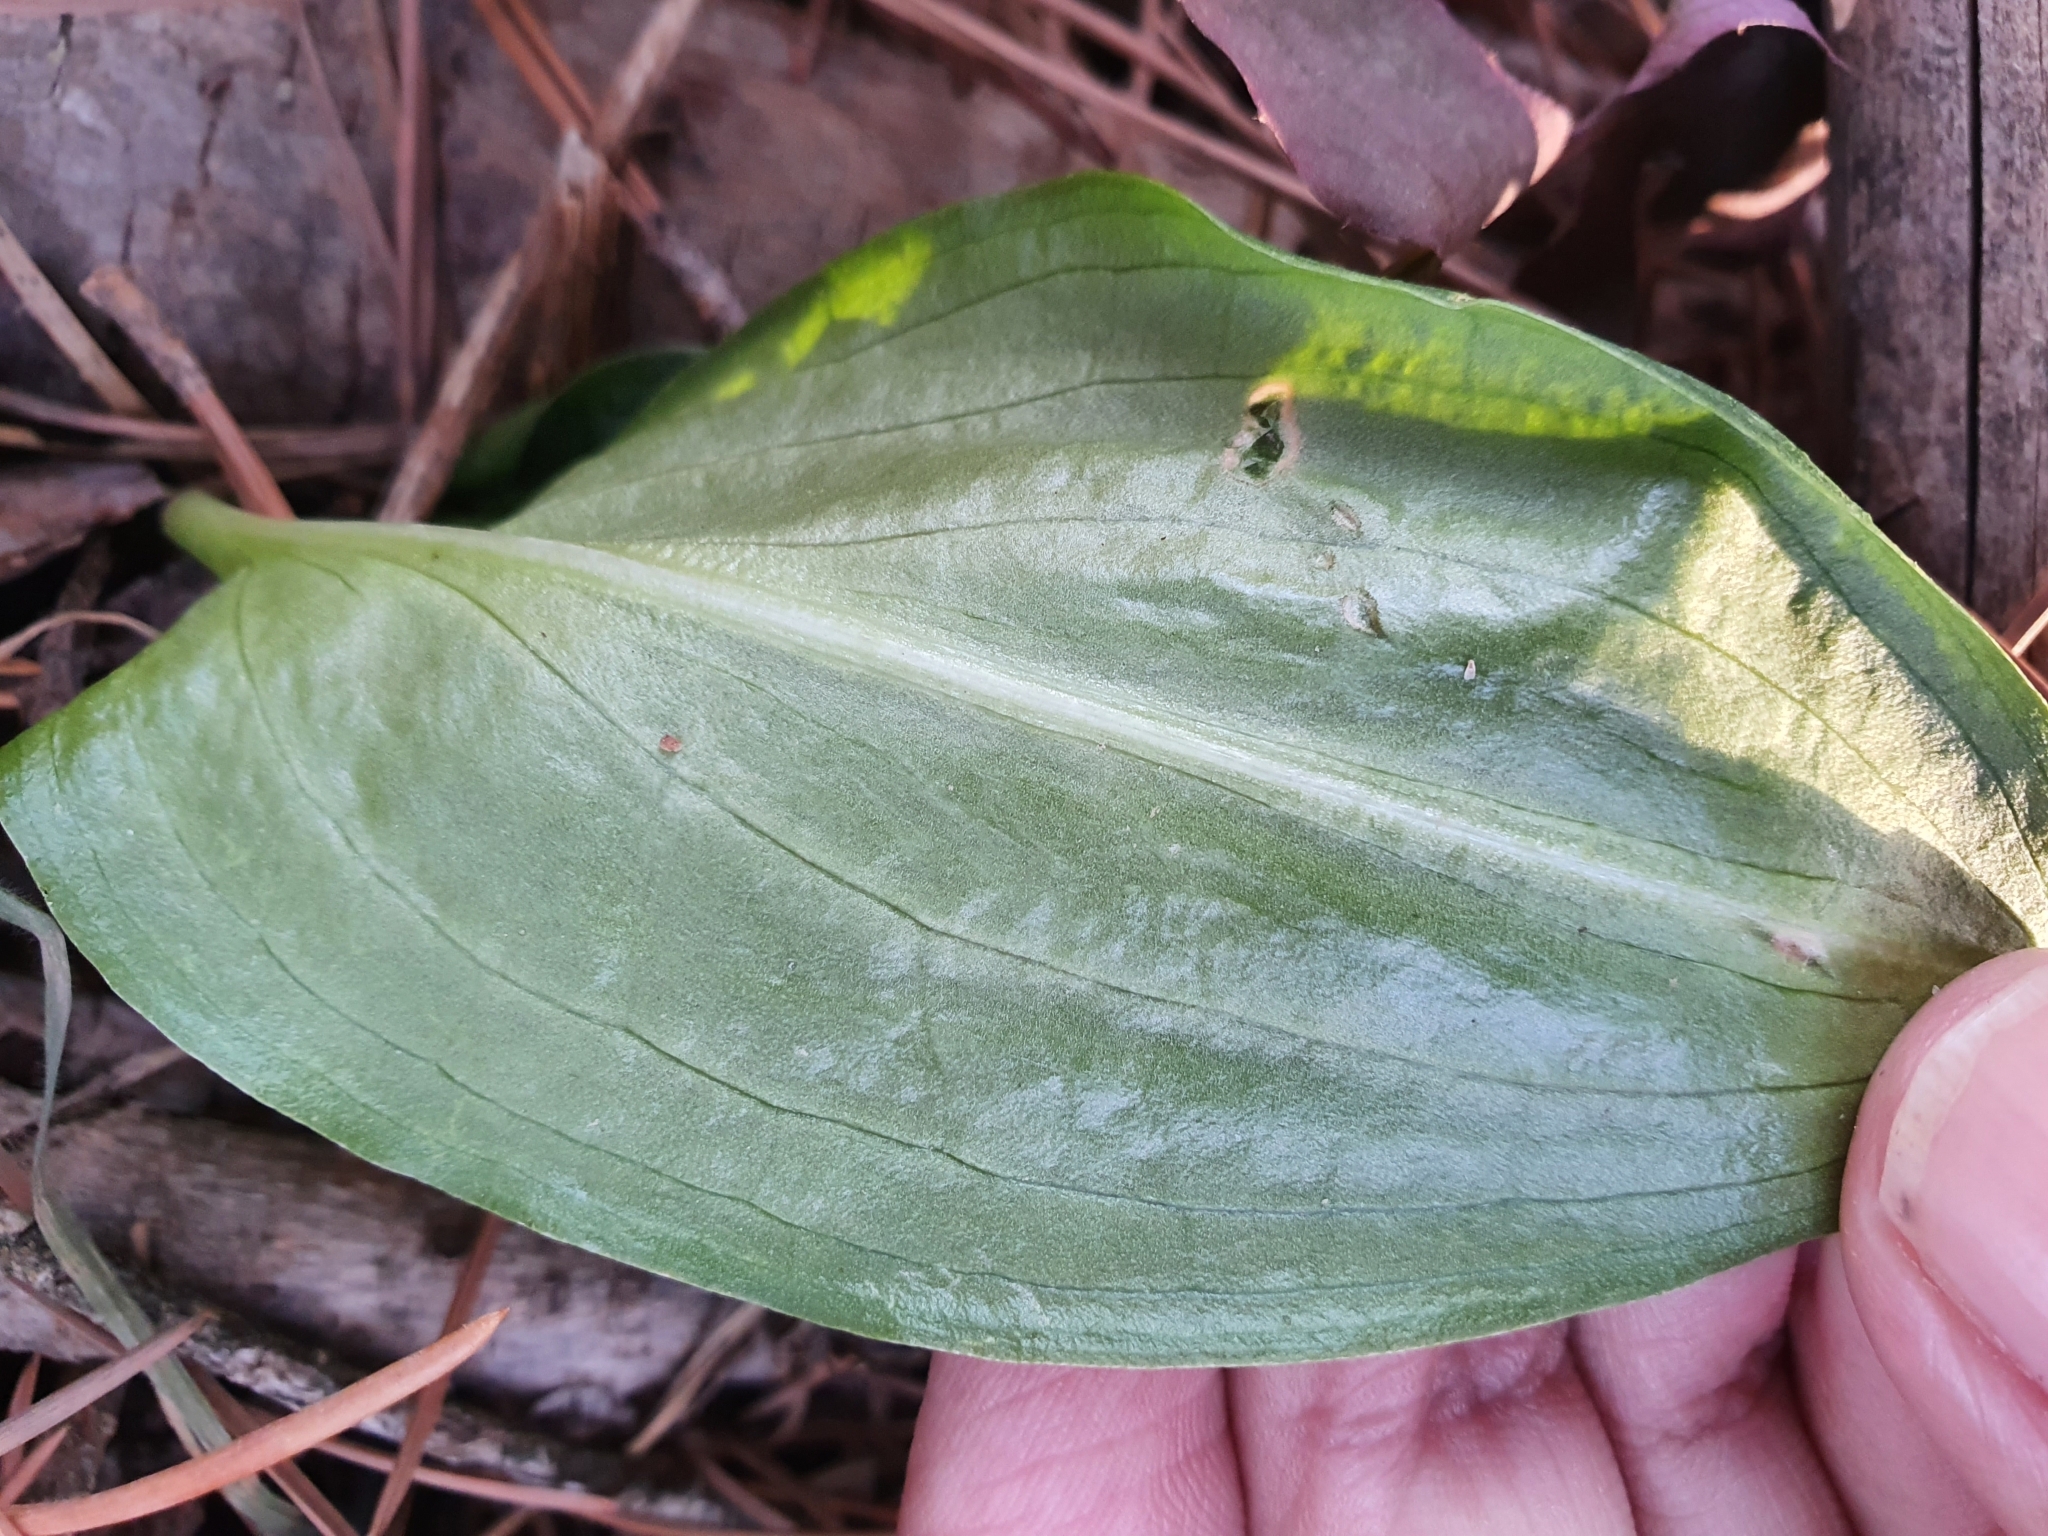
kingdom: Plantae
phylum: Tracheophyta
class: Liliopsida
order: Alismatales
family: Araceae
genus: Ambrosina
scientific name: Ambrosina bassii
